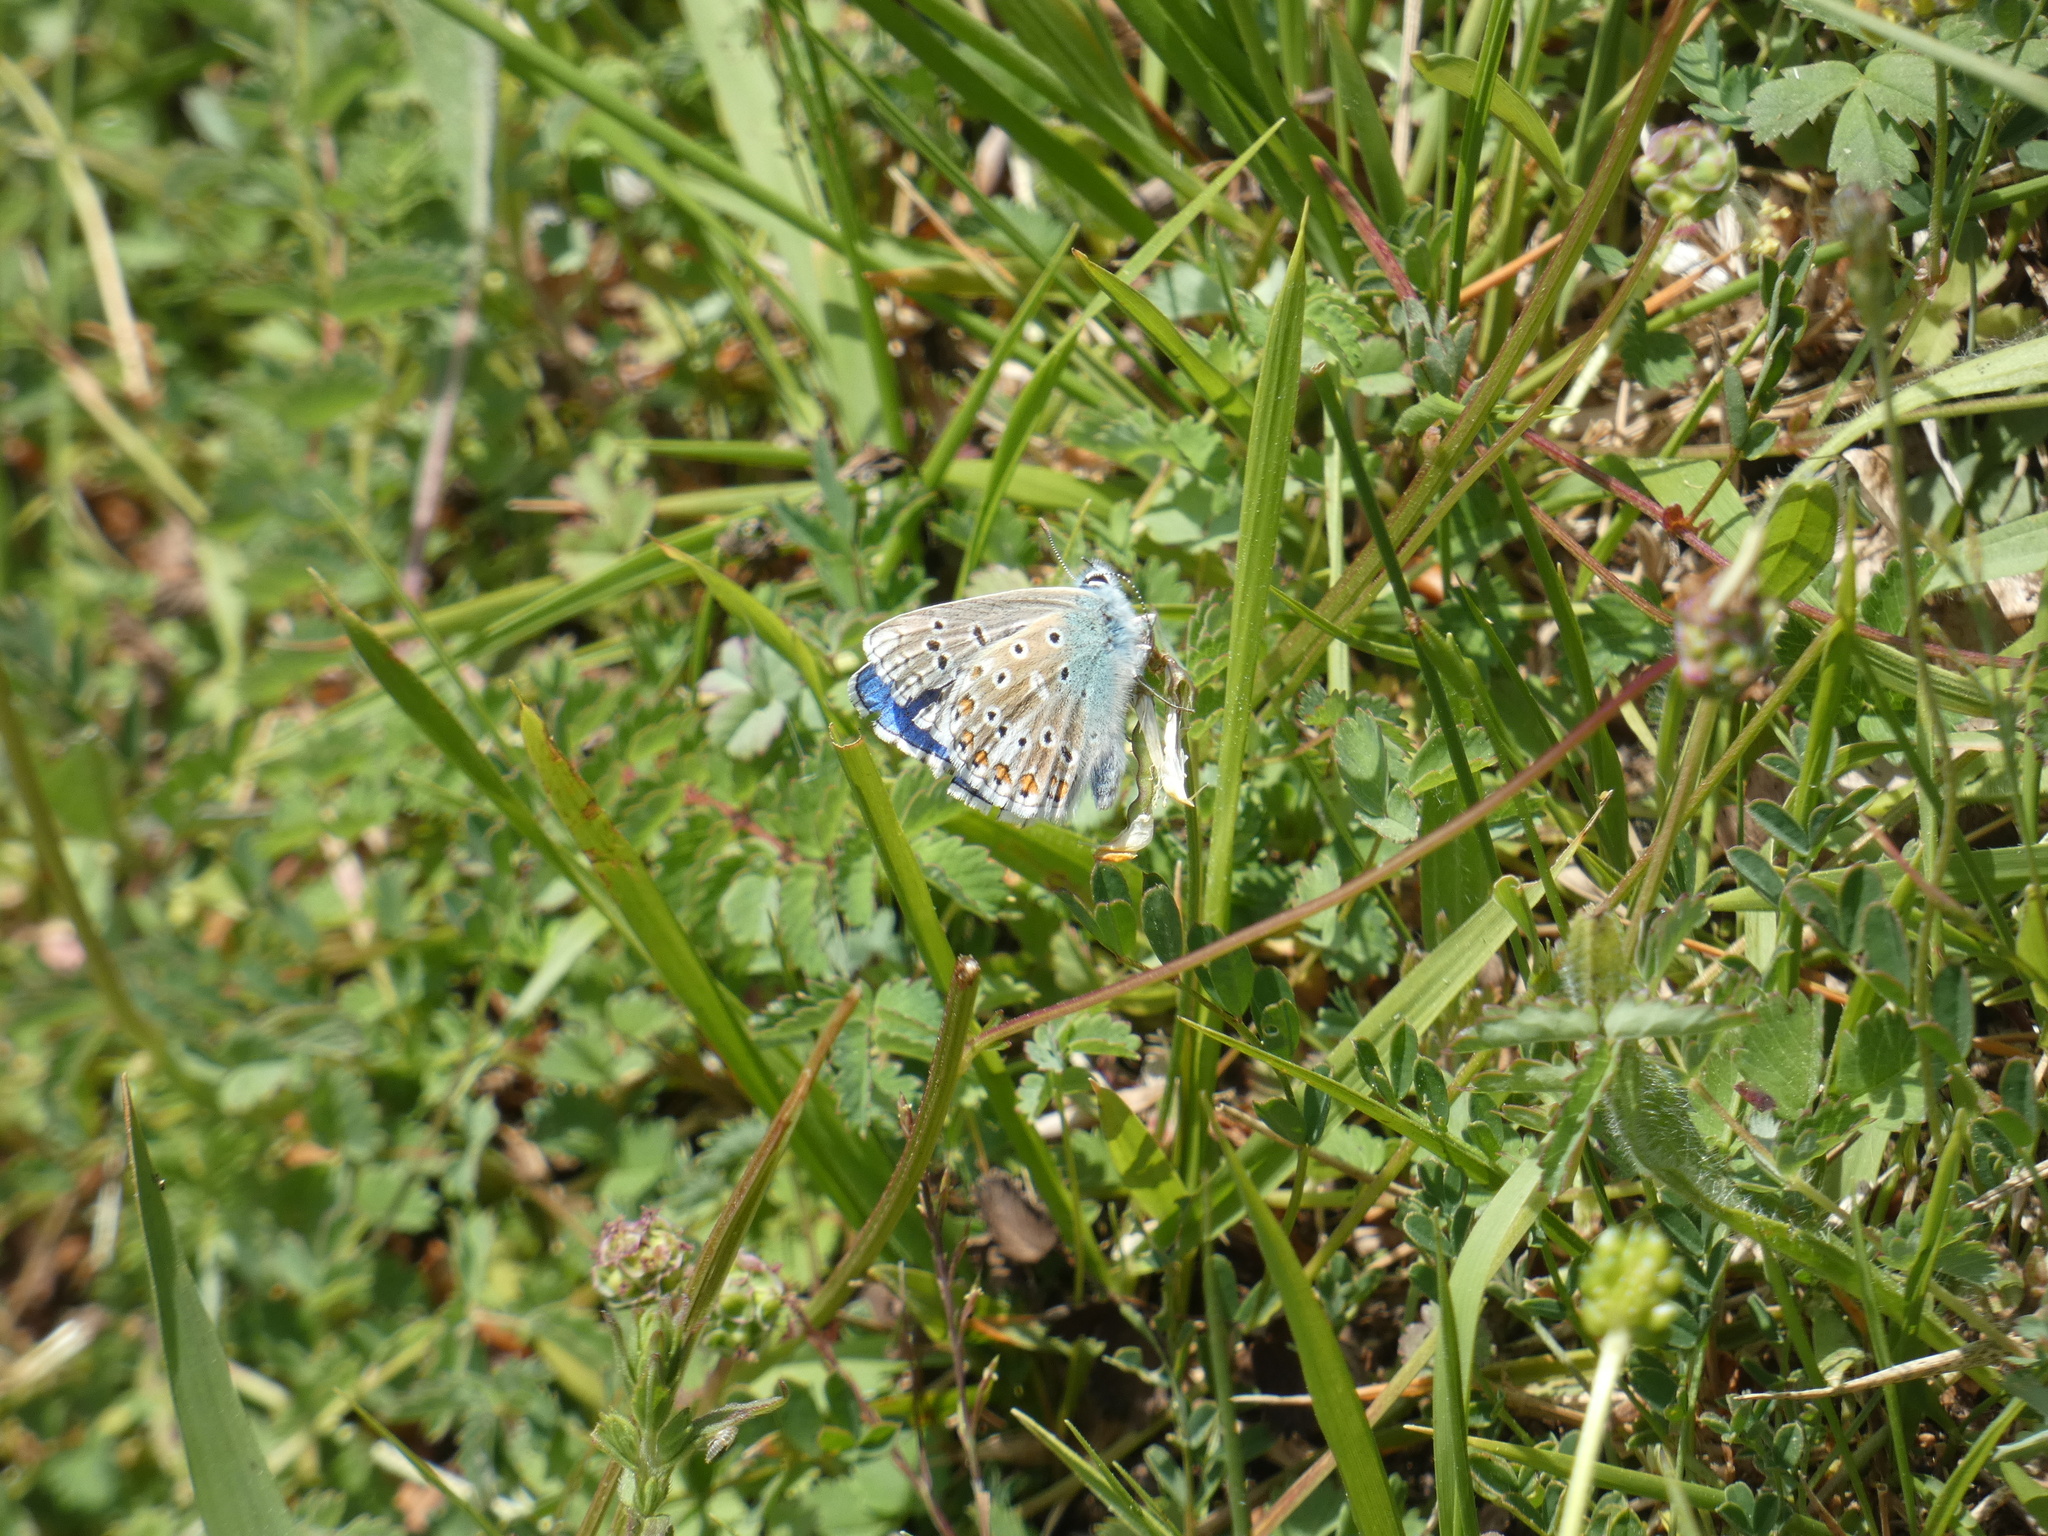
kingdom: Animalia
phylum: Arthropoda
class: Insecta
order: Lepidoptera
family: Lycaenidae
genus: Lysandra
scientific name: Lysandra bellargus
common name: Adonis blue
